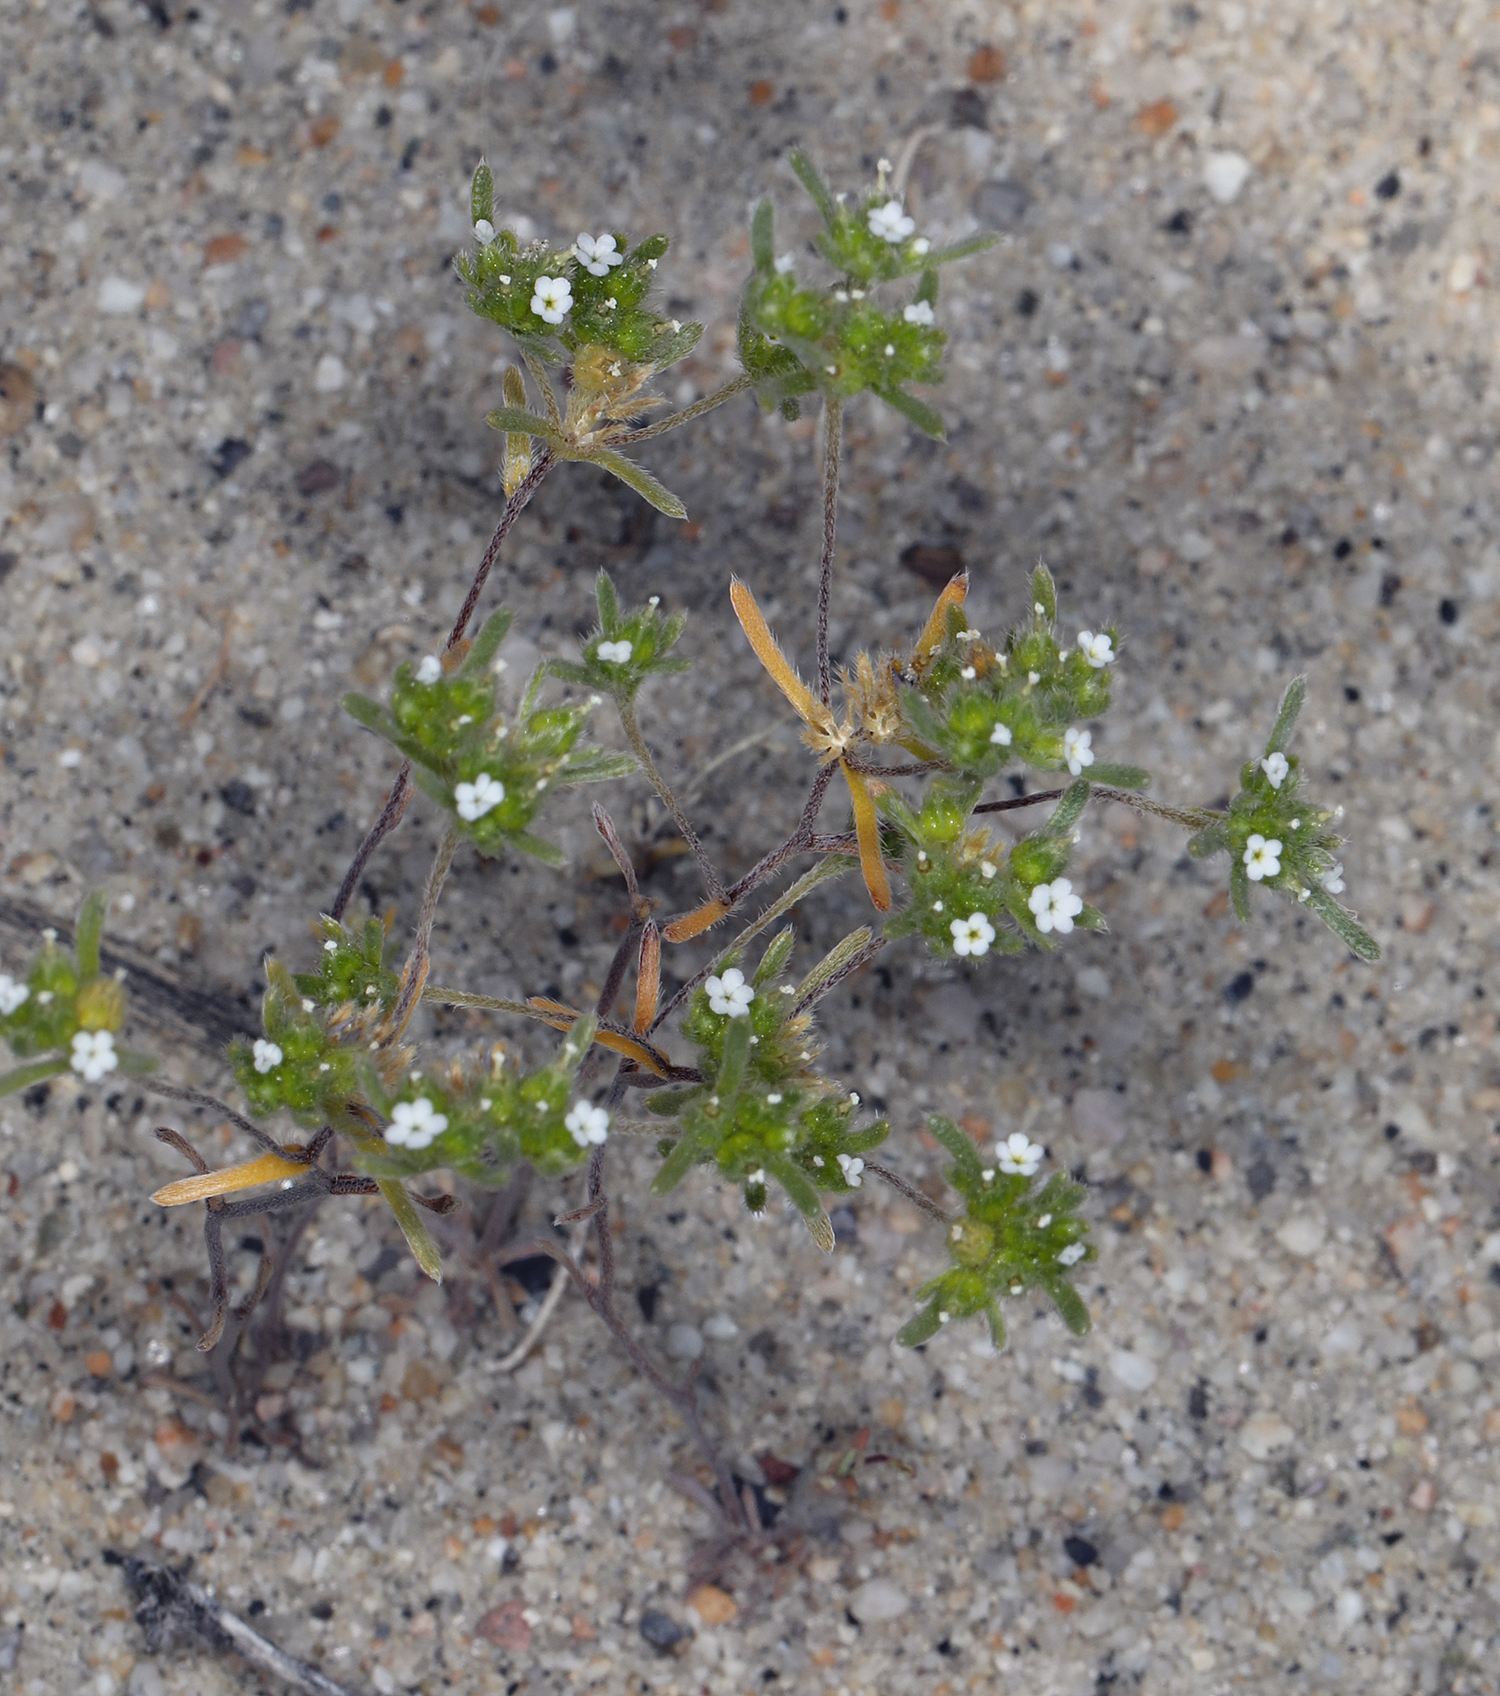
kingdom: Plantae
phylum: Tracheophyta
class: Magnoliopsida
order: Boraginales
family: Boraginaceae
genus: Eremocarya
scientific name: Eremocarya micrantha
